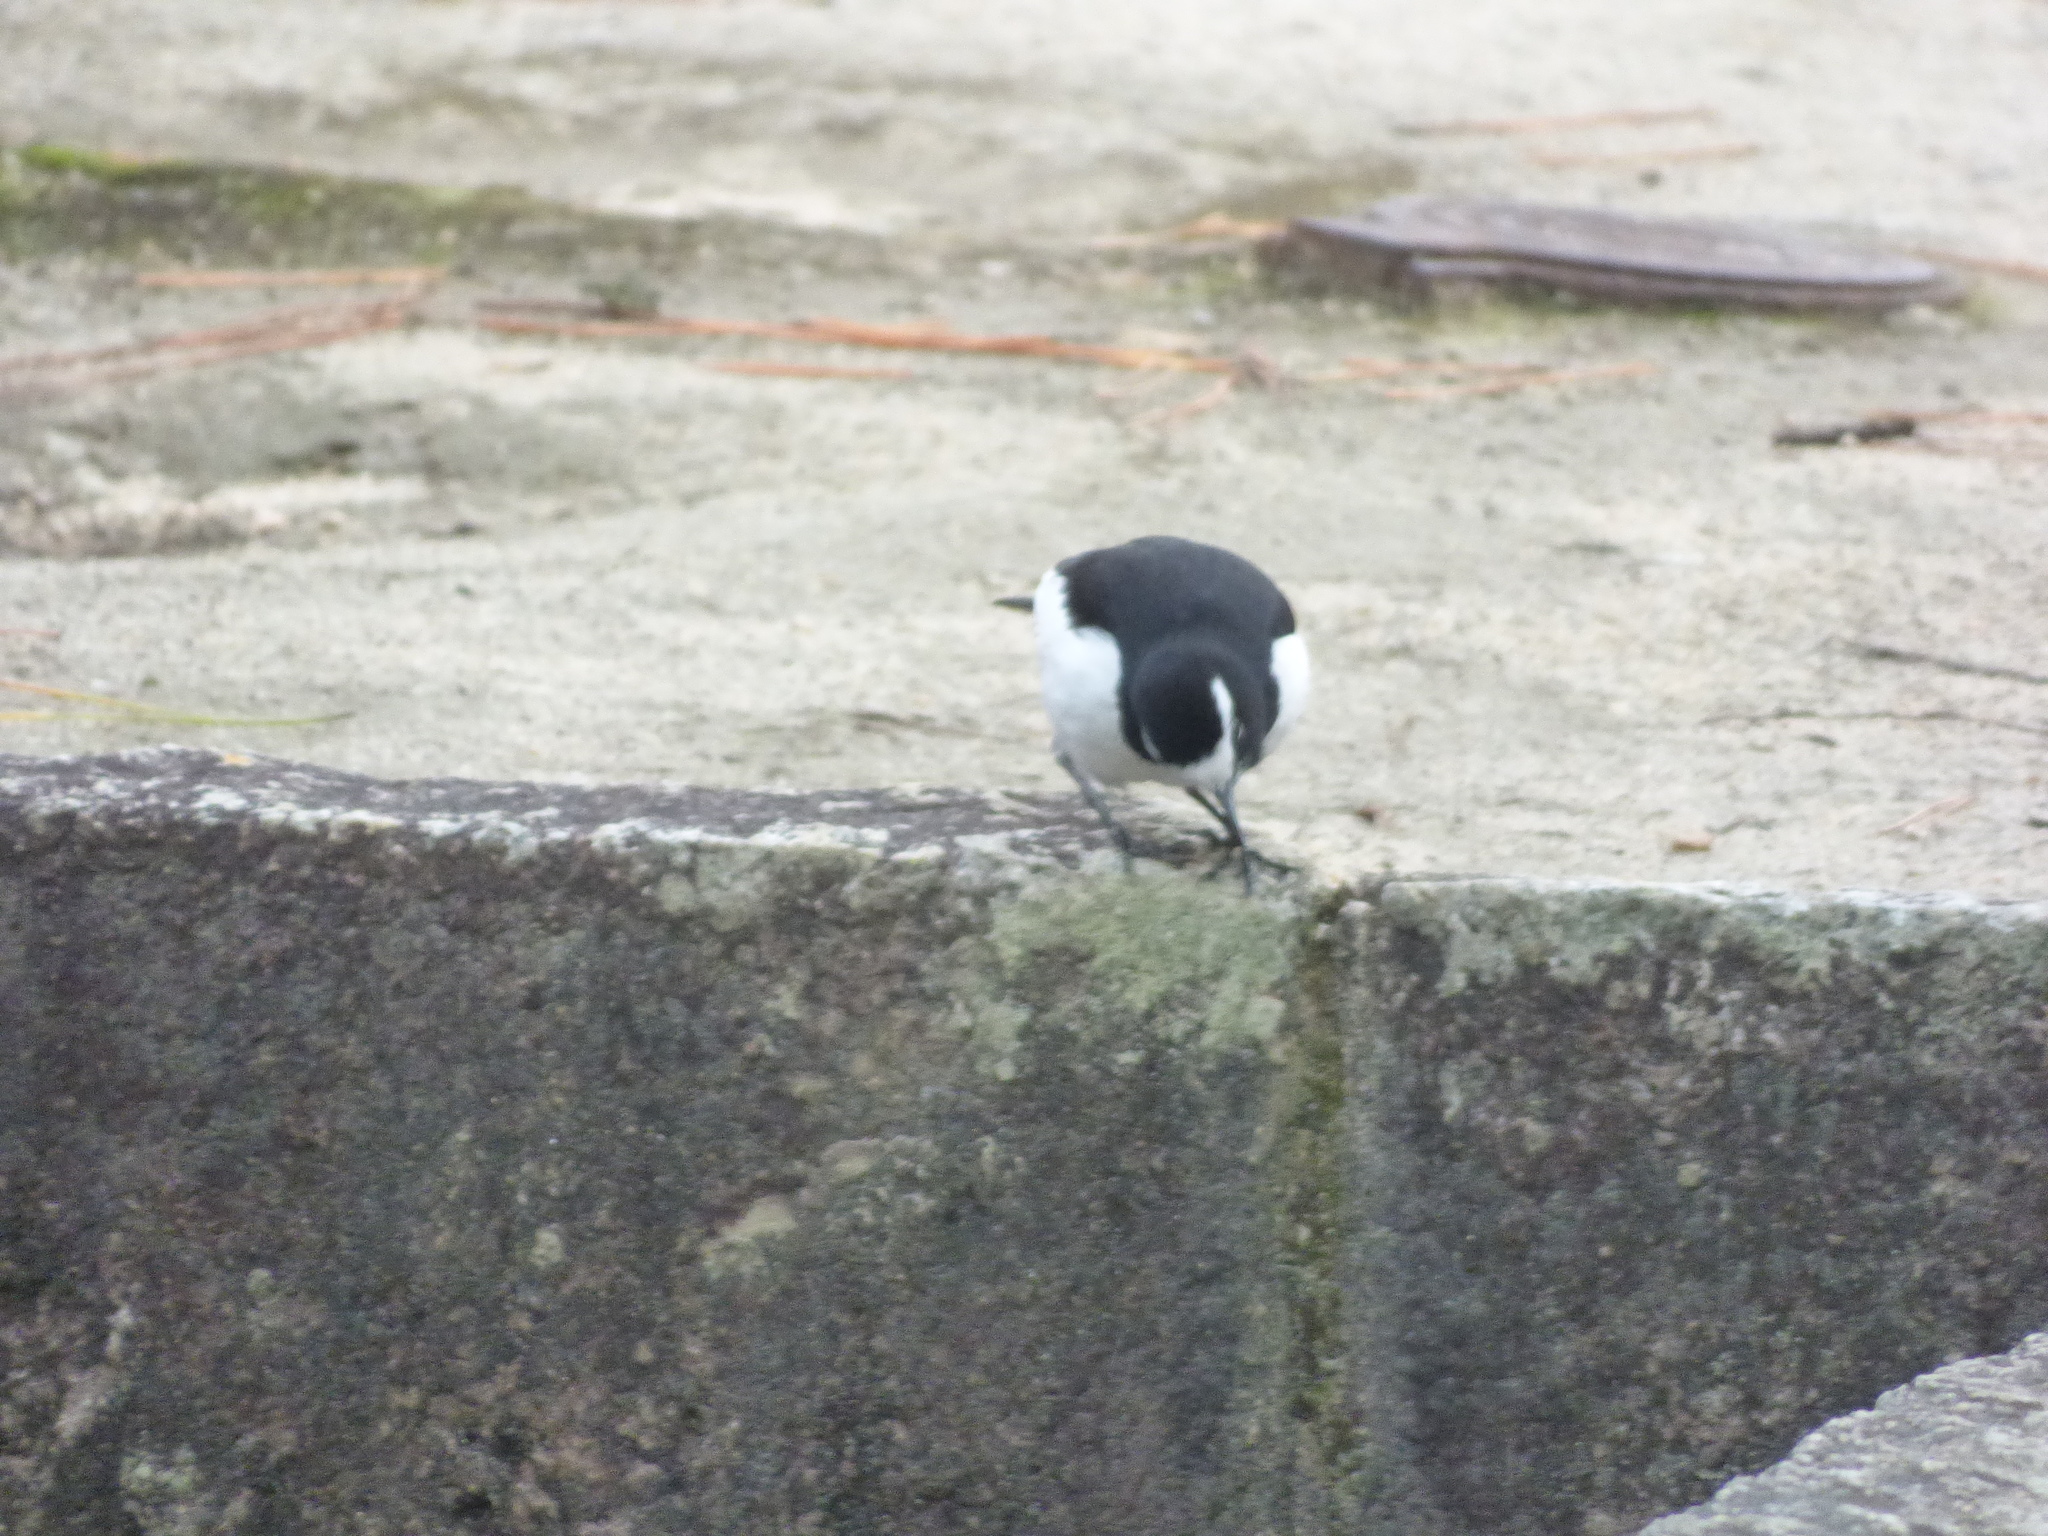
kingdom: Animalia
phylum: Chordata
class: Aves
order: Passeriformes
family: Motacillidae
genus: Motacilla
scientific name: Motacilla grandis
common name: Japanese wagtail
